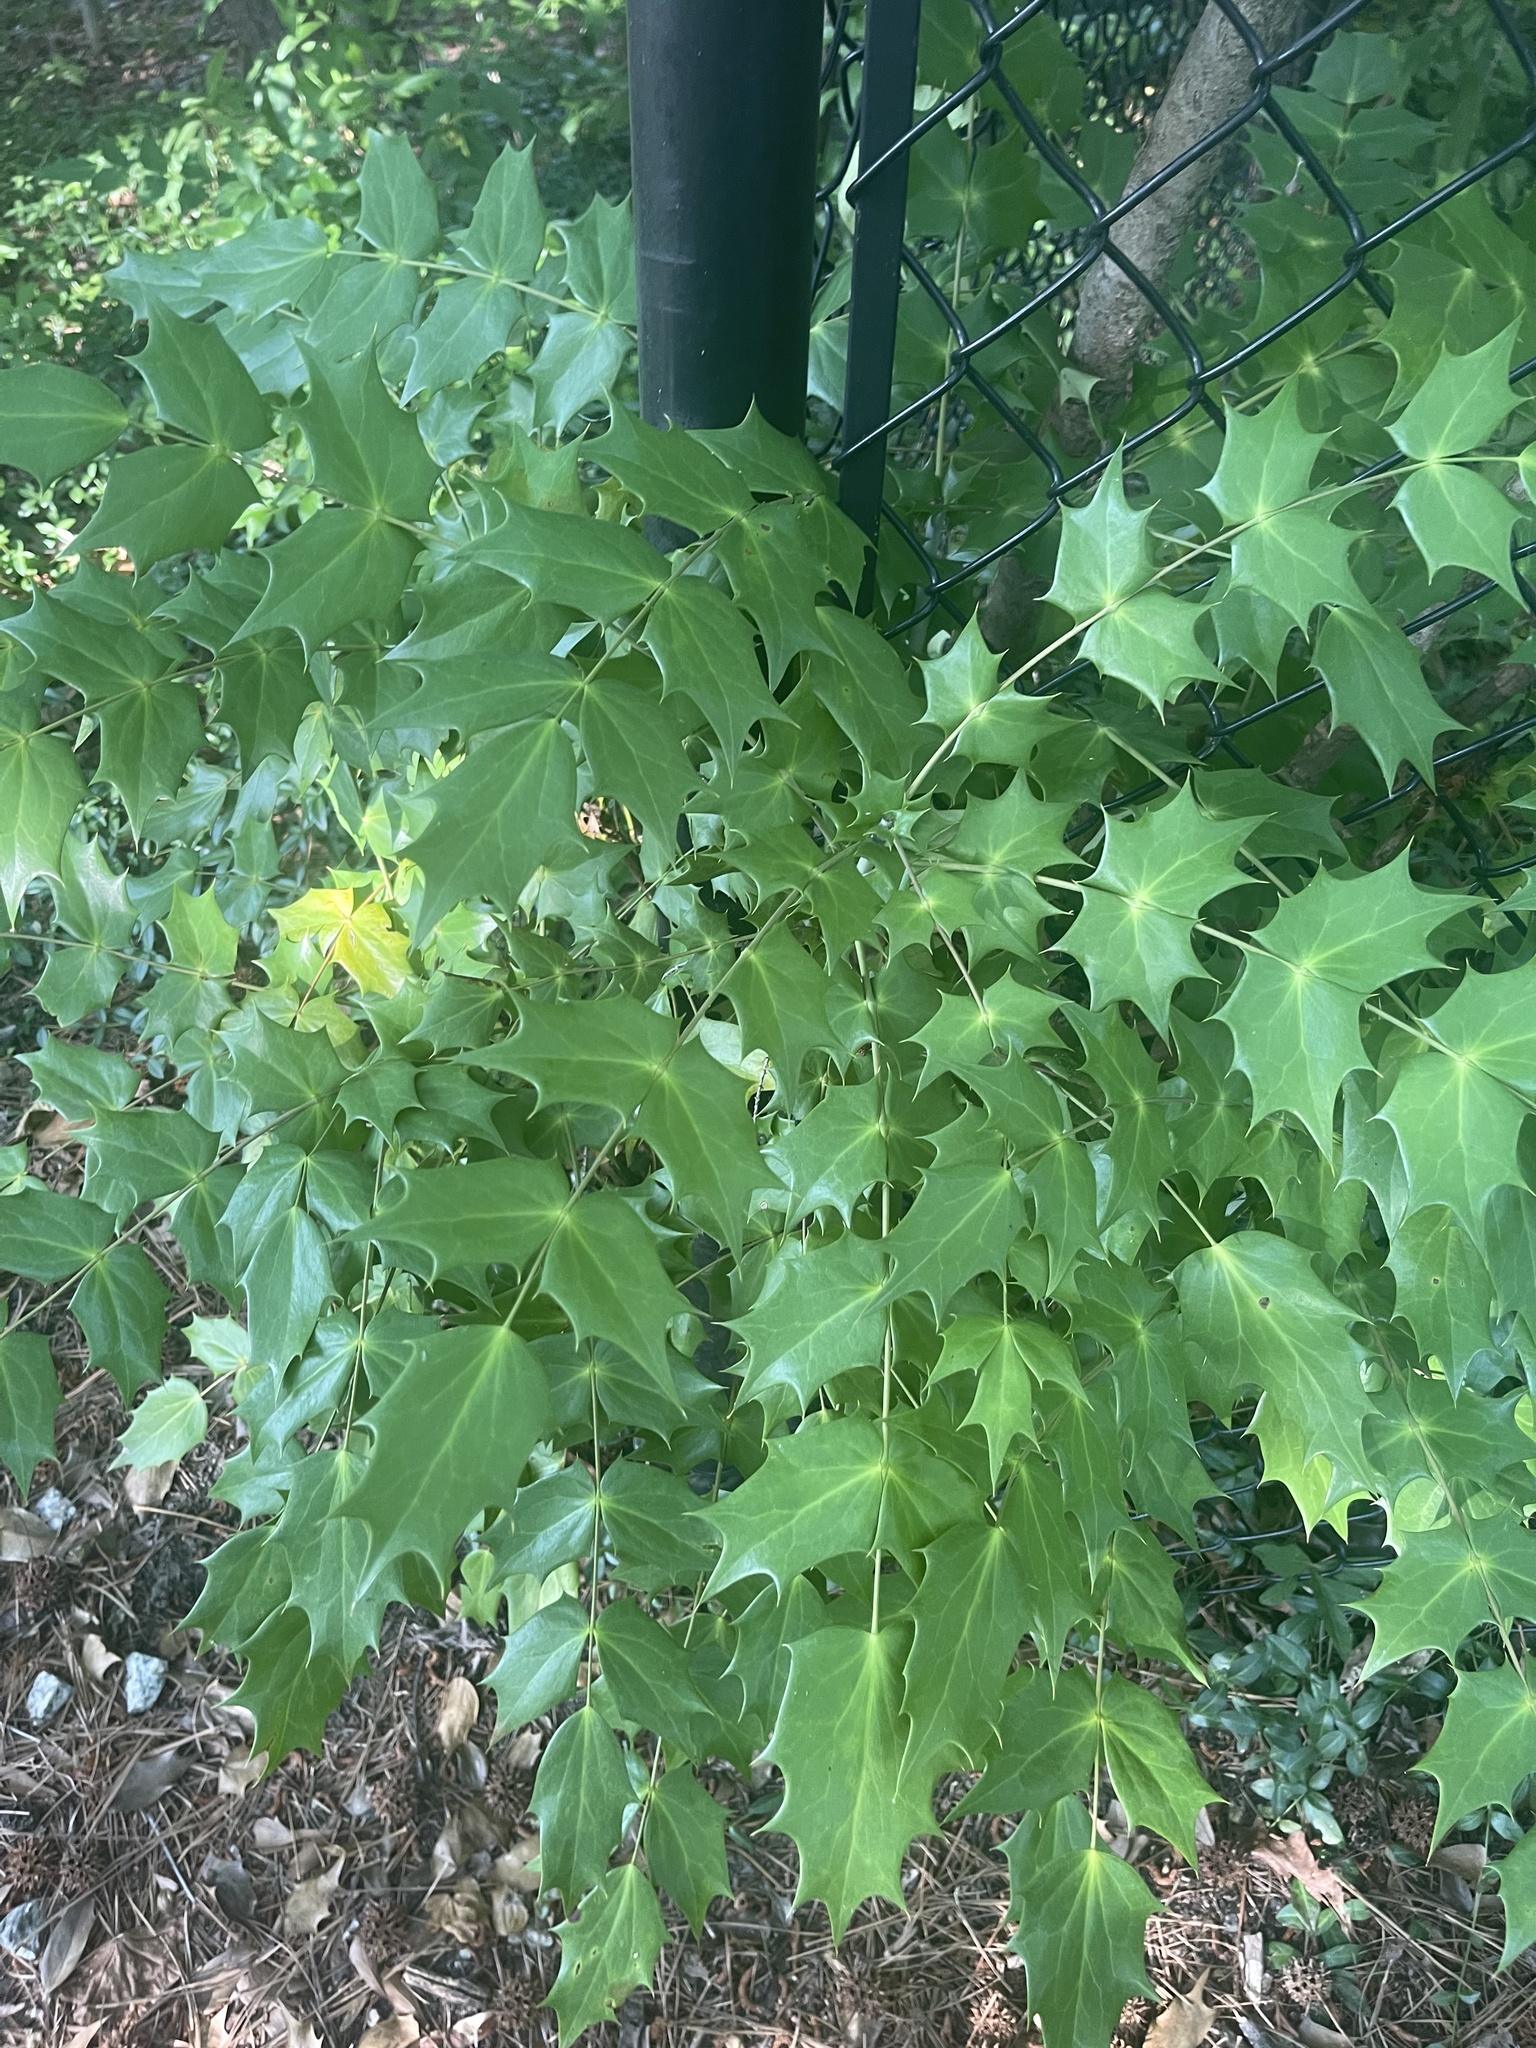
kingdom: Plantae
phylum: Tracheophyta
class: Magnoliopsida
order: Ranunculales
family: Berberidaceae
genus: Mahonia
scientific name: Mahonia bealei
